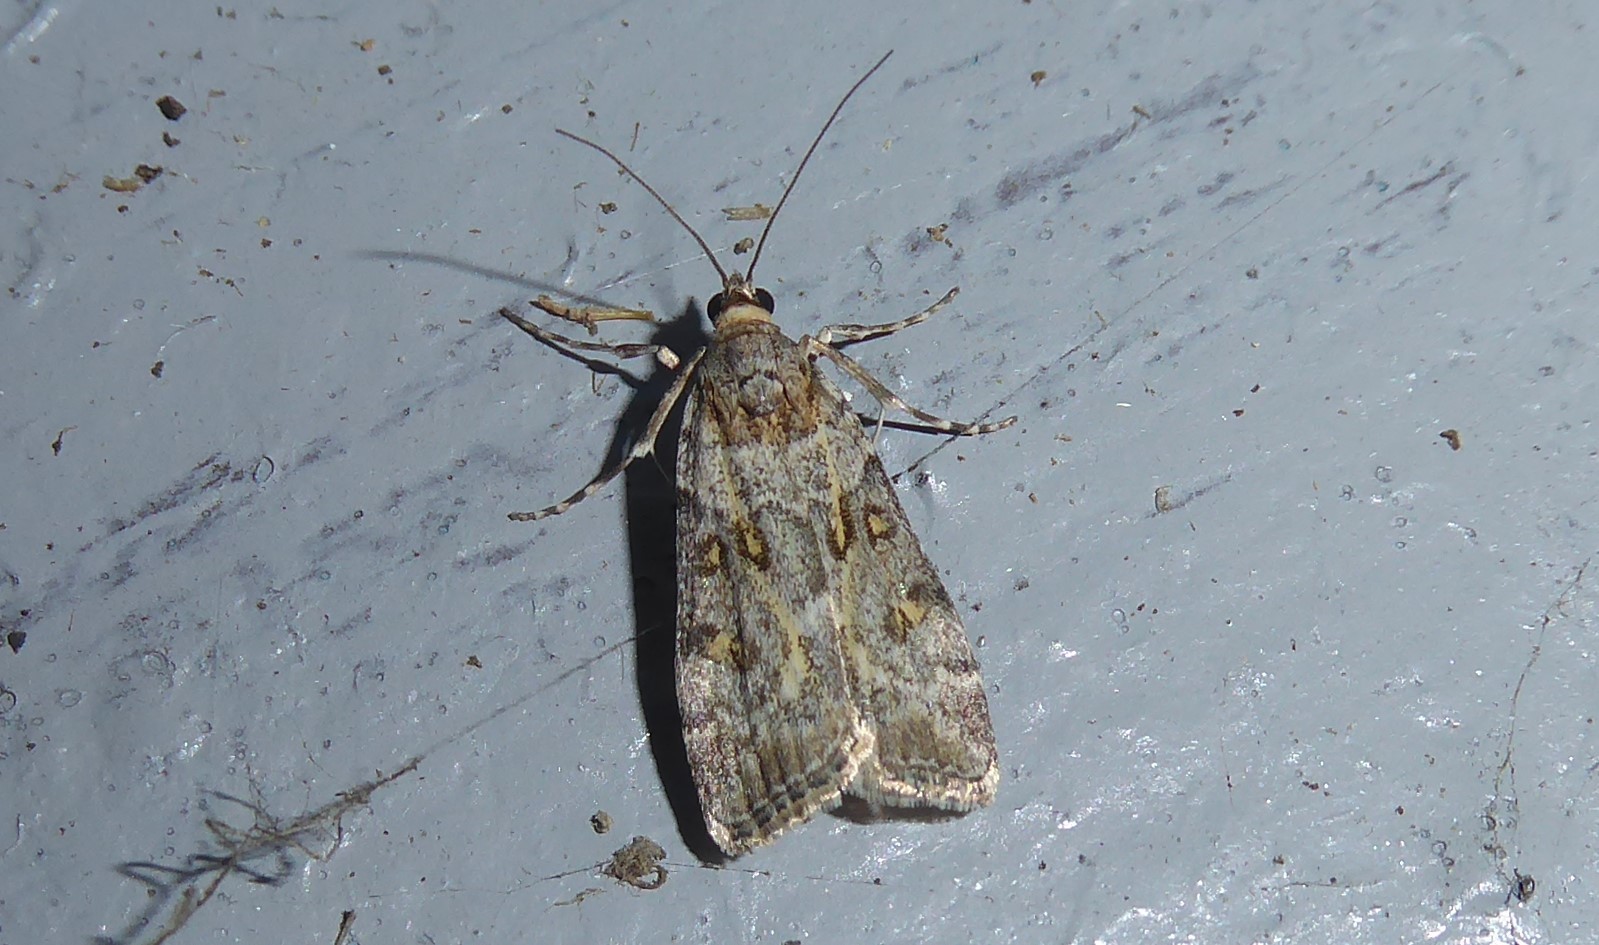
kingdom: Animalia
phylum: Arthropoda
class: Insecta
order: Lepidoptera
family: Crambidae
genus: Eudonia
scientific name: Eudonia diphtheralis
